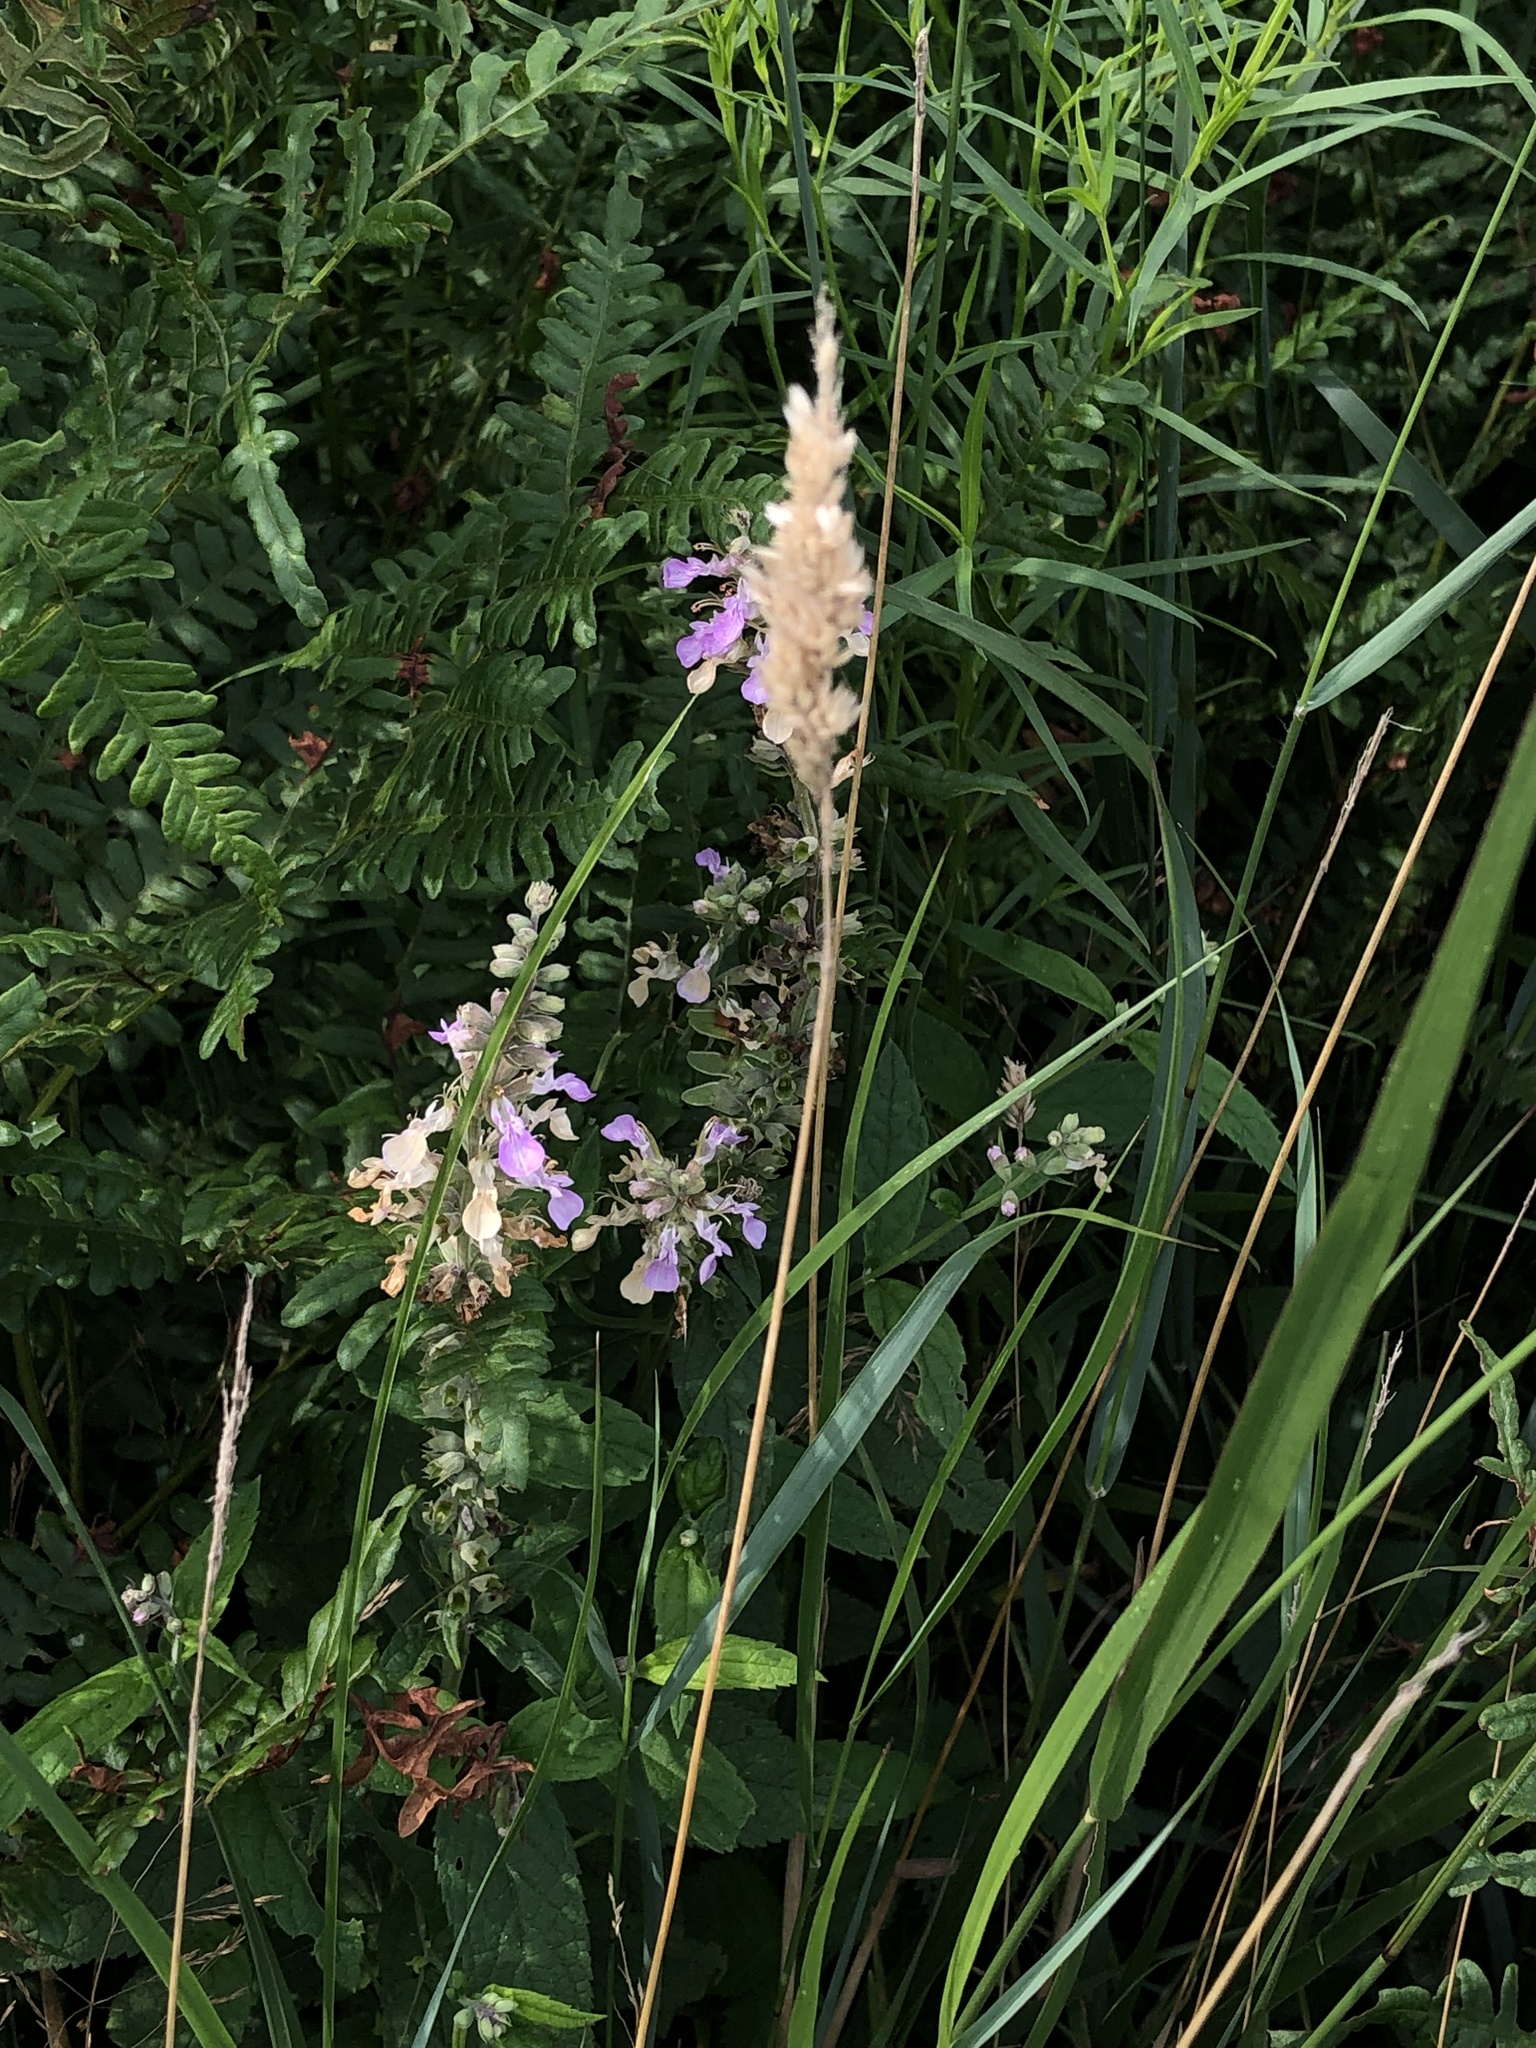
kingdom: Plantae
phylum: Tracheophyta
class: Magnoliopsida
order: Lamiales
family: Lamiaceae
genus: Teucrium
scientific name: Teucrium canadense
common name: American germander
